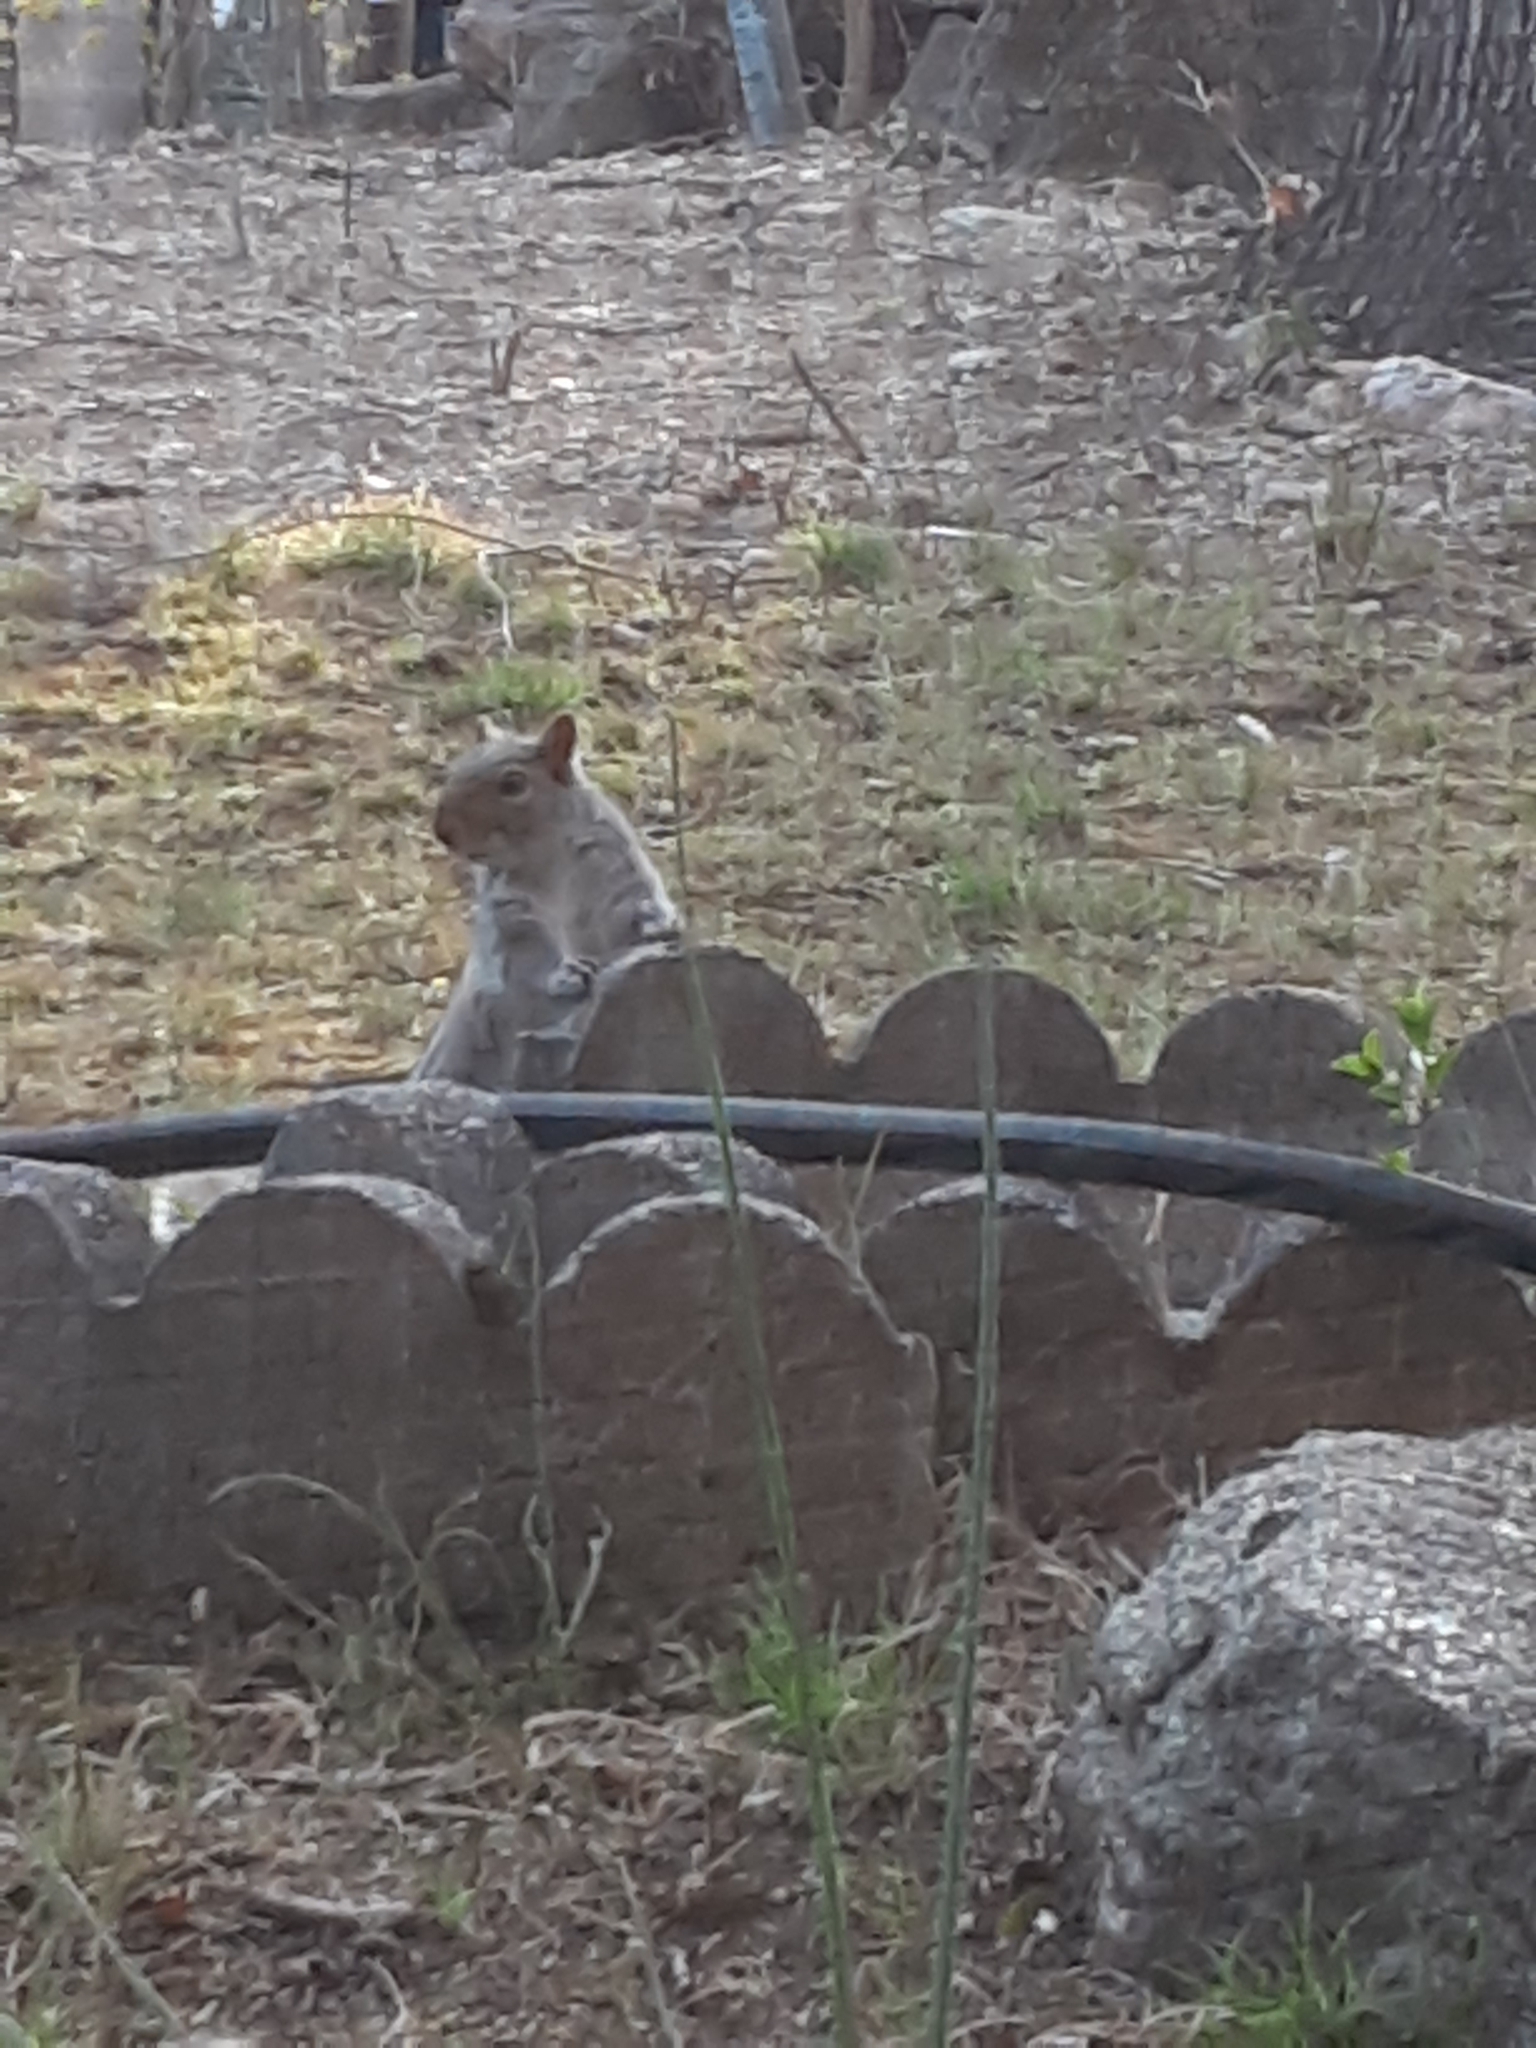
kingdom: Animalia
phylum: Chordata
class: Mammalia
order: Rodentia
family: Sciuridae
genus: Sciurus
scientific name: Sciurus carolinensis
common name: Eastern gray squirrel
